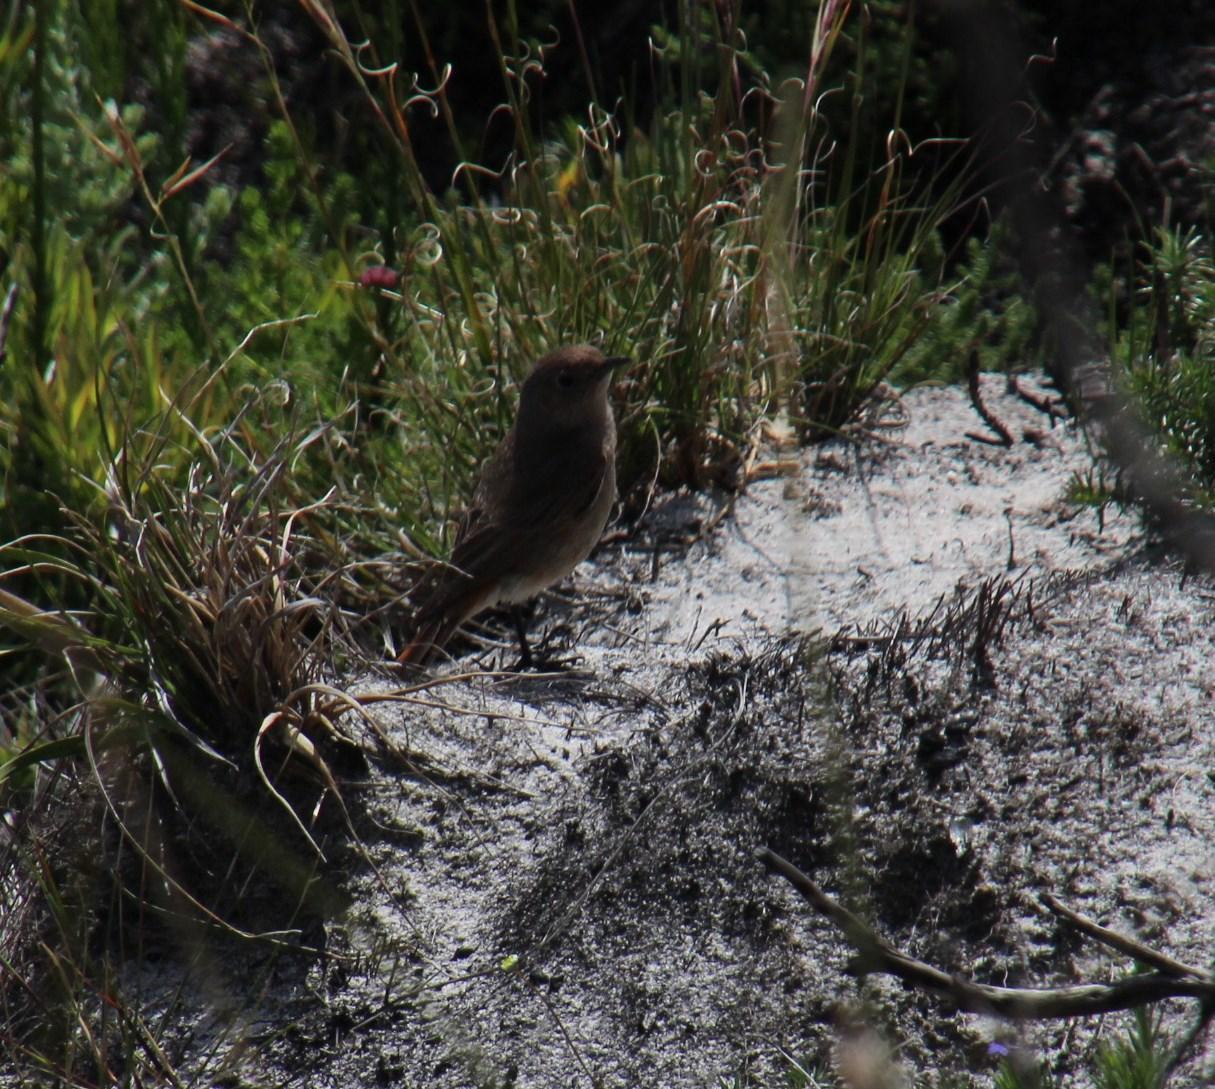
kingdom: Animalia
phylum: Chordata
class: Aves
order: Passeriformes
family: Muscicapidae
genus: Oenanthe
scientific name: Oenanthe familiaris
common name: Familiar chat
